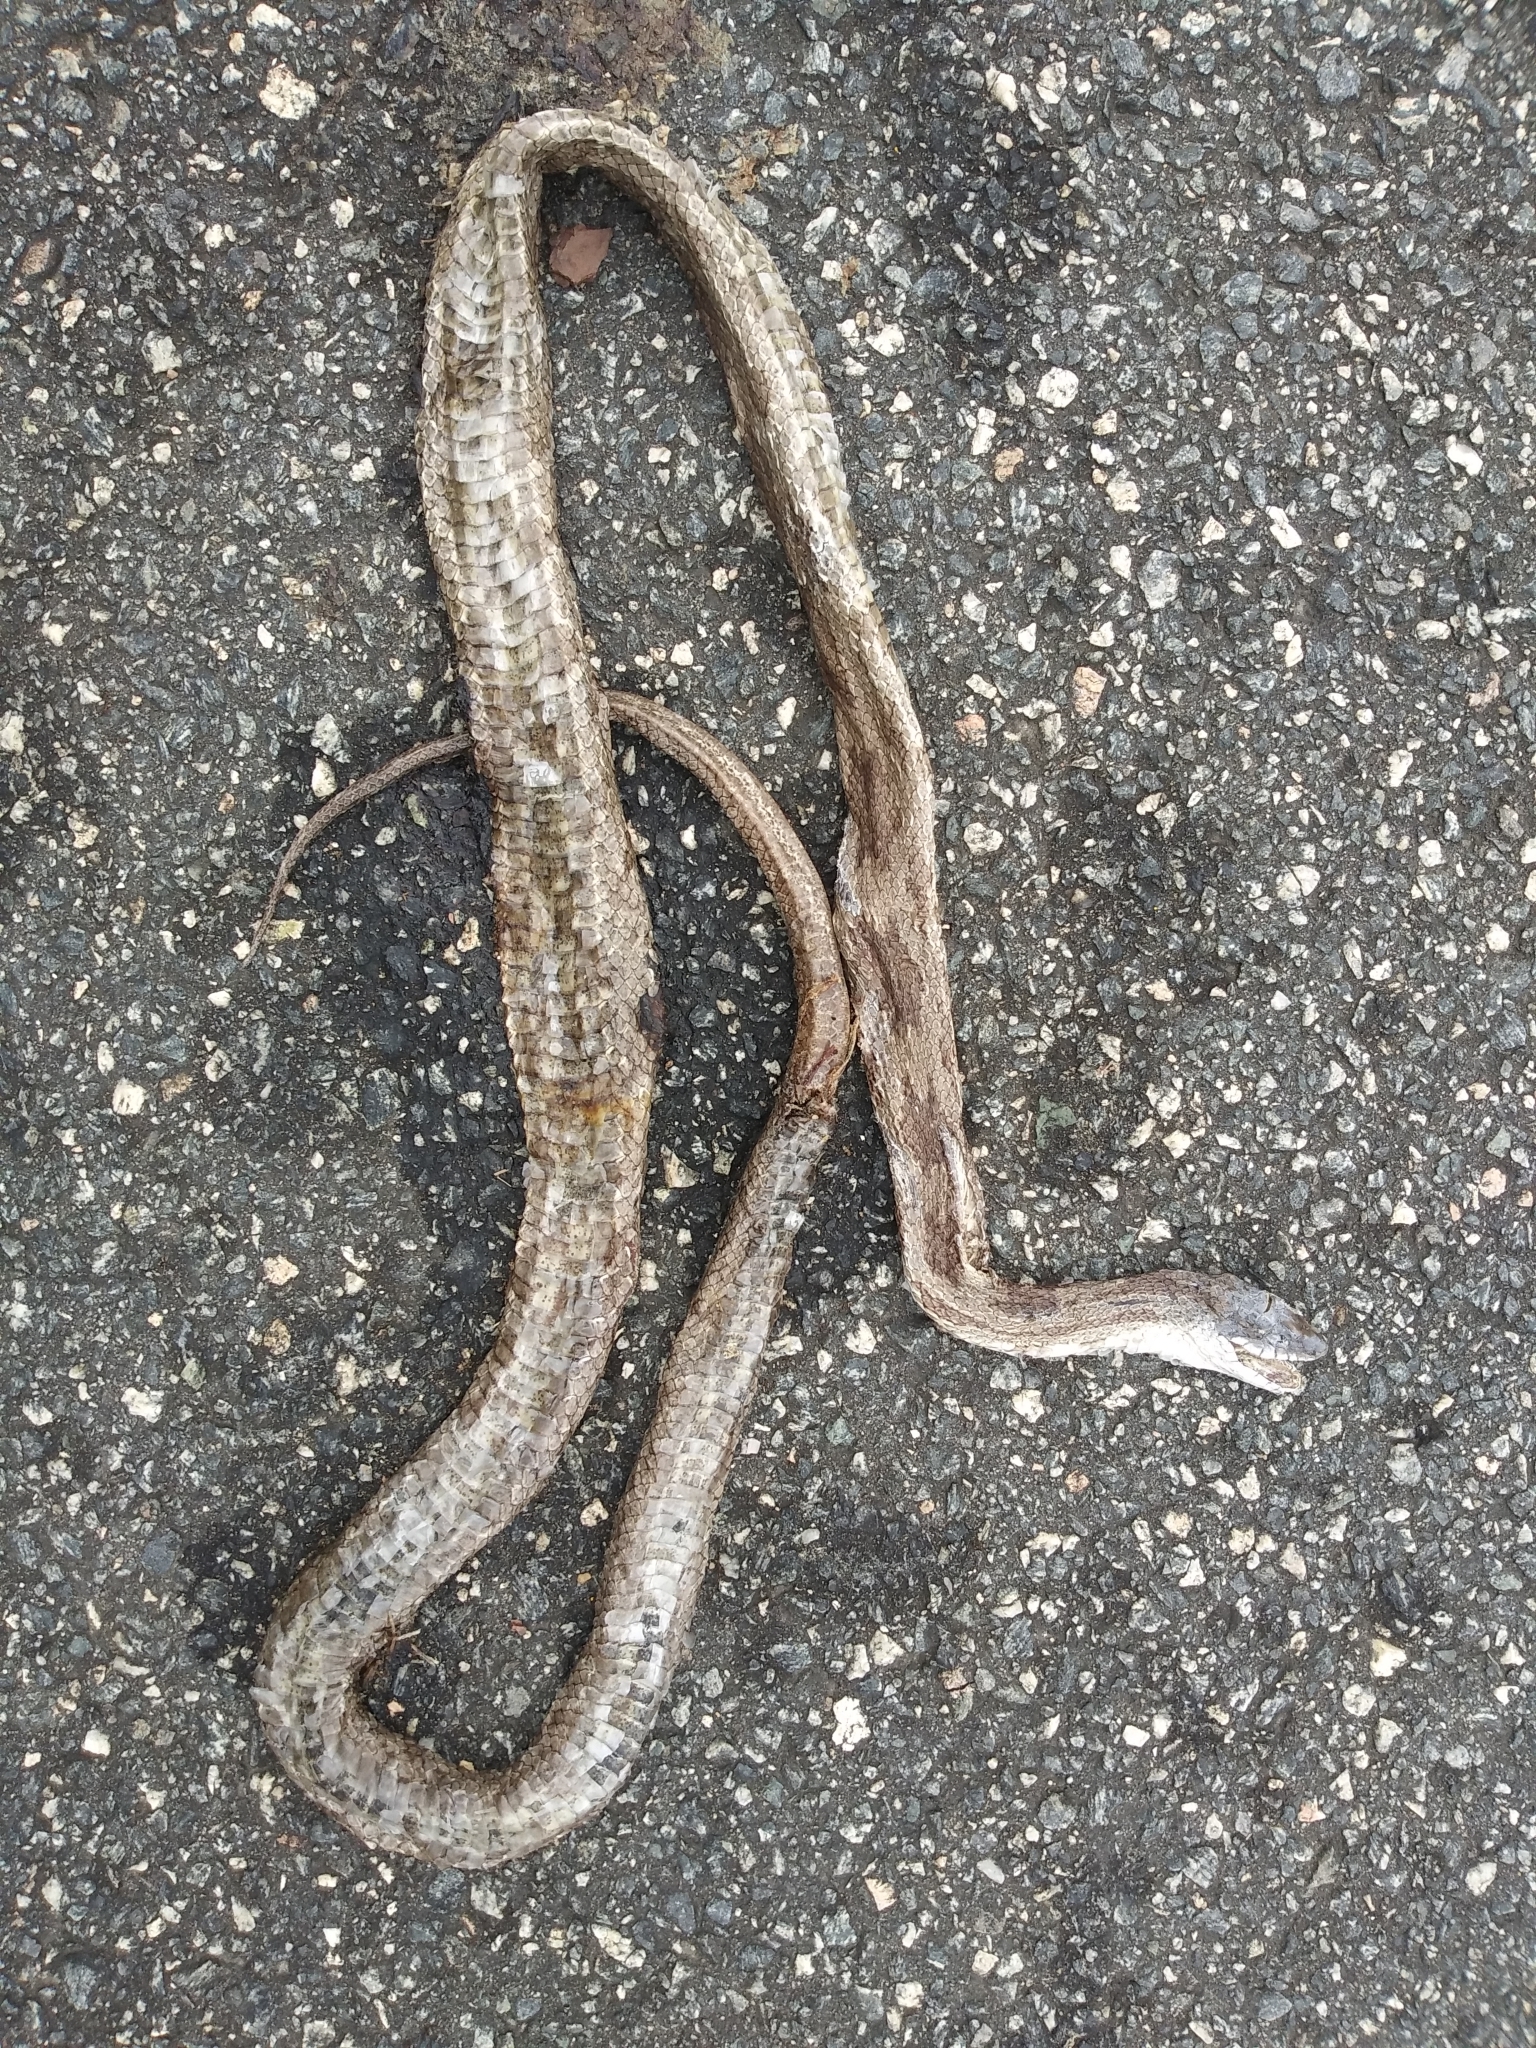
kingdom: Animalia
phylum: Chordata
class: Squamata
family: Colubridae
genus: Pantherophis
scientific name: Pantherophis spiloides
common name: Gray rat snake
